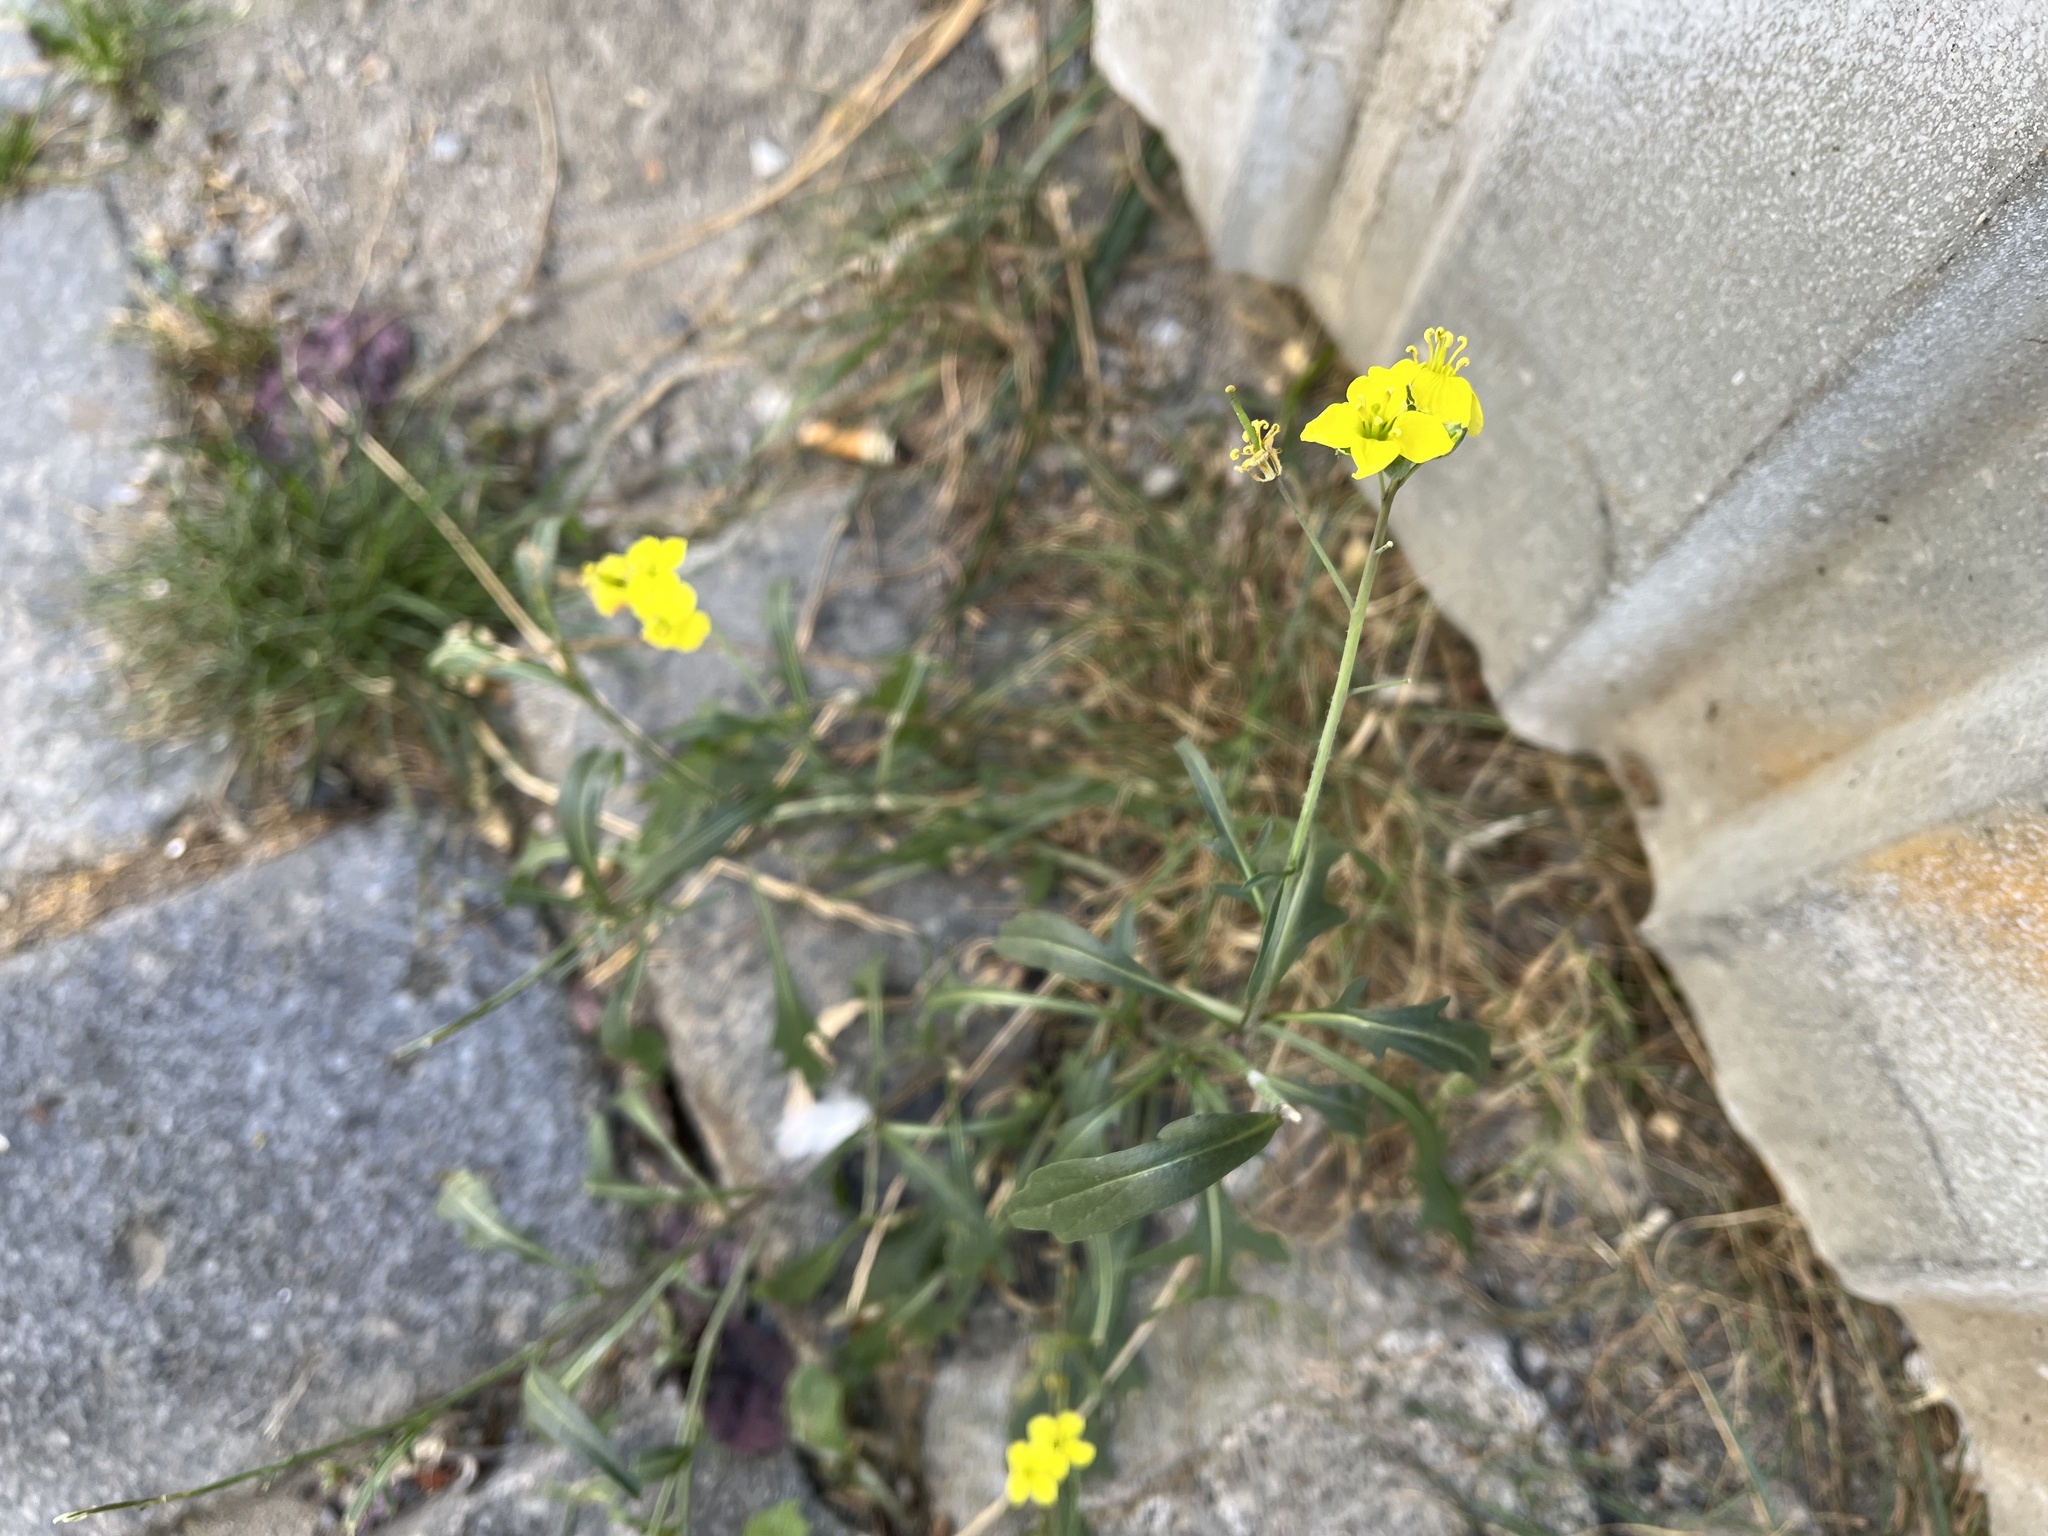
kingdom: Plantae
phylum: Tracheophyta
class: Magnoliopsida
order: Brassicales
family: Brassicaceae
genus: Diplotaxis
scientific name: Diplotaxis tenuifolia
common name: Perennial wall-rocket
